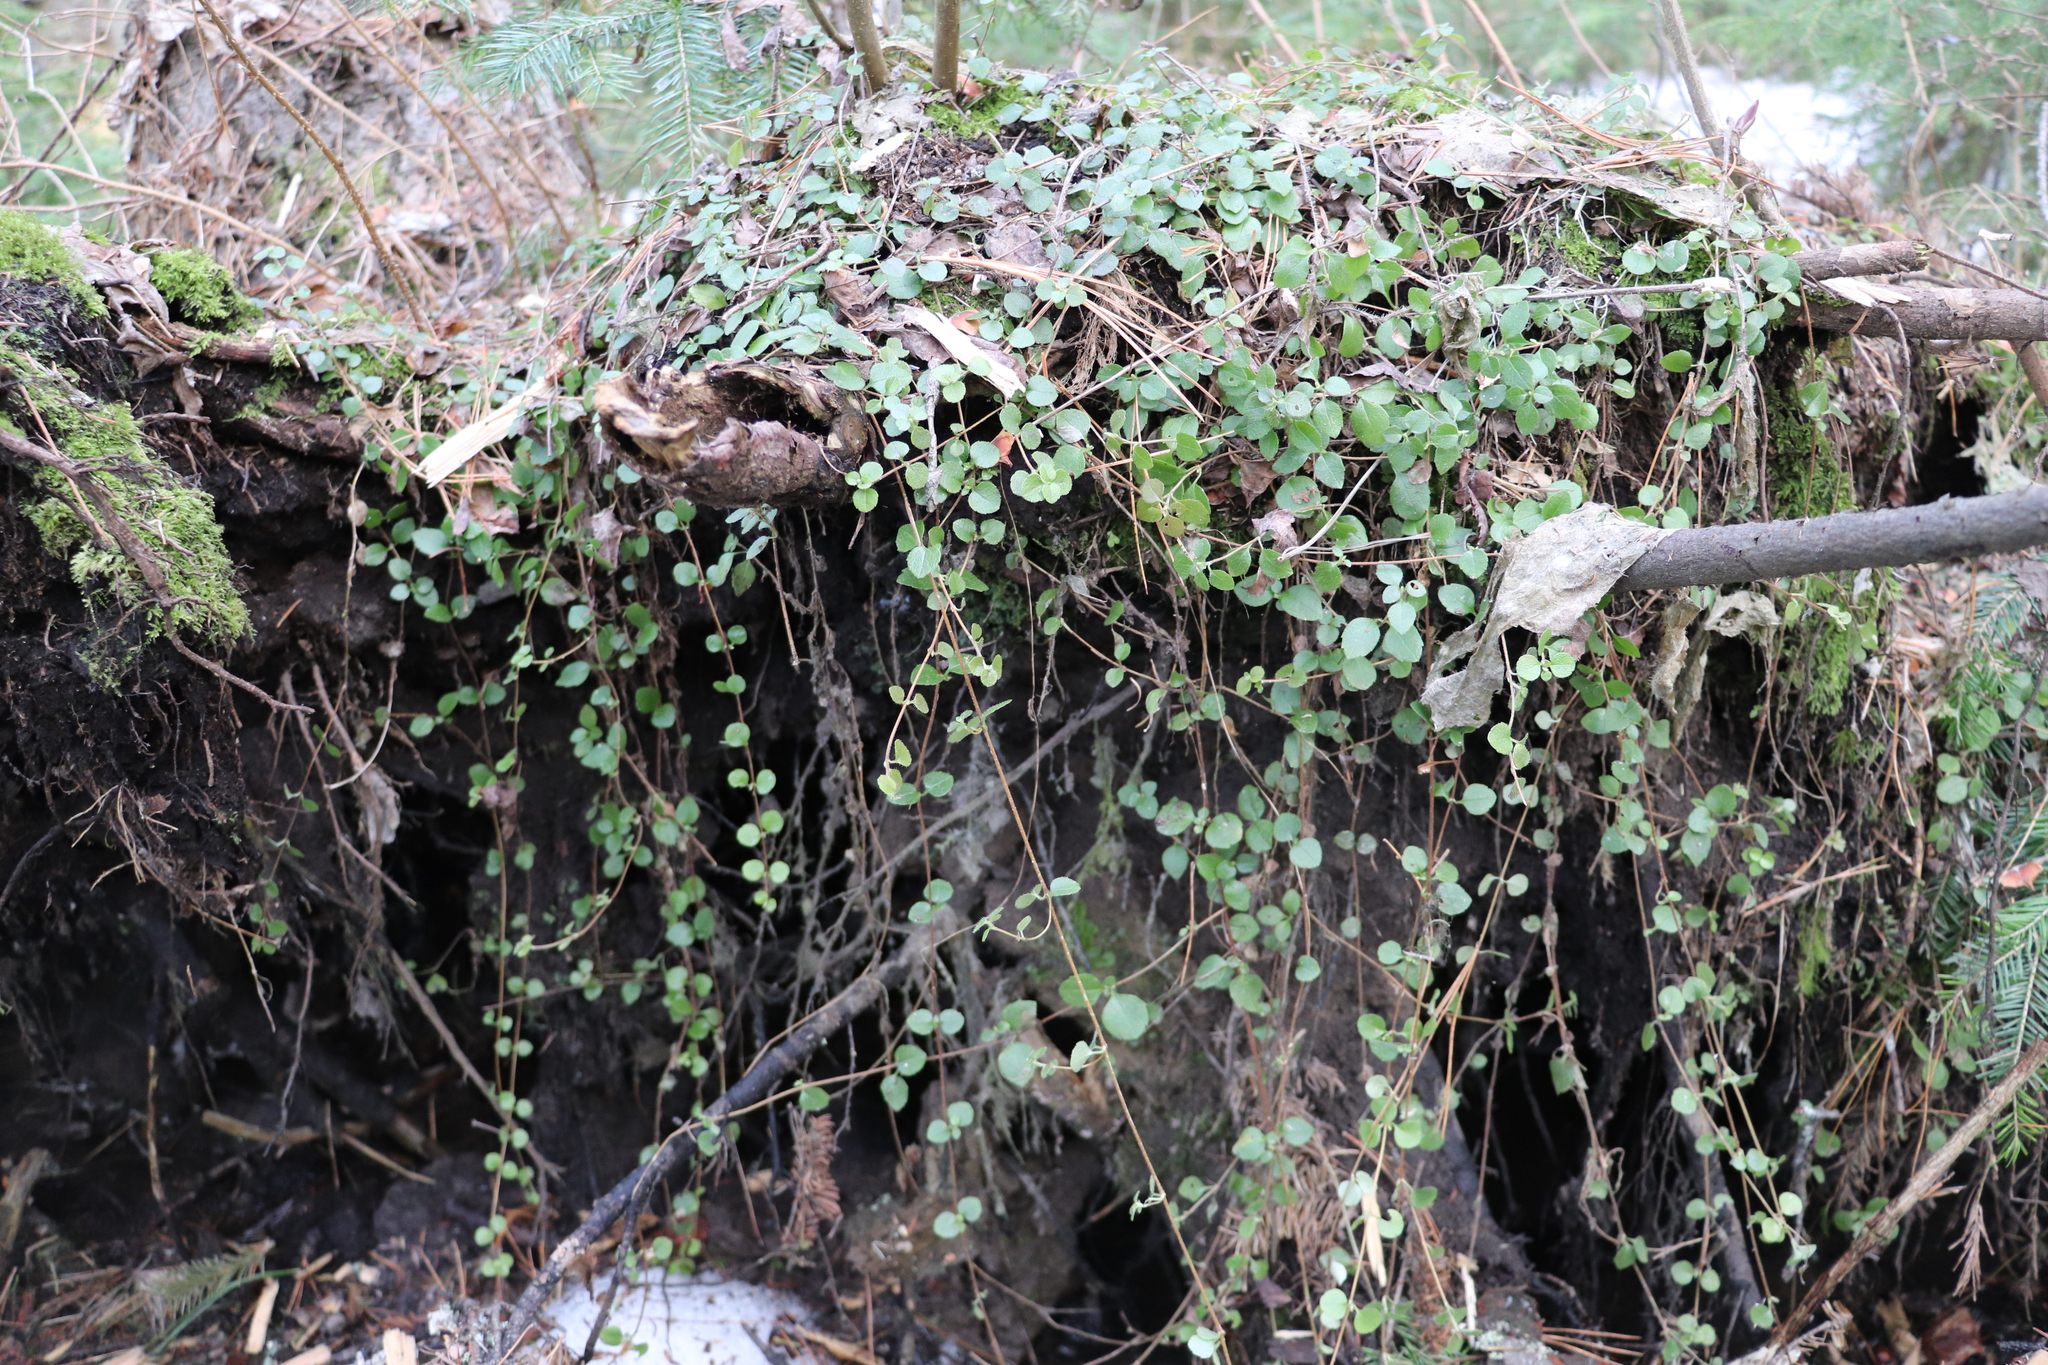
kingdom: Plantae
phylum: Tracheophyta
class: Magnoliopsida
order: Dipsacales
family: Caprifoliaceae
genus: Linnaea
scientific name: Linnaea borealis
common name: Twinflower
